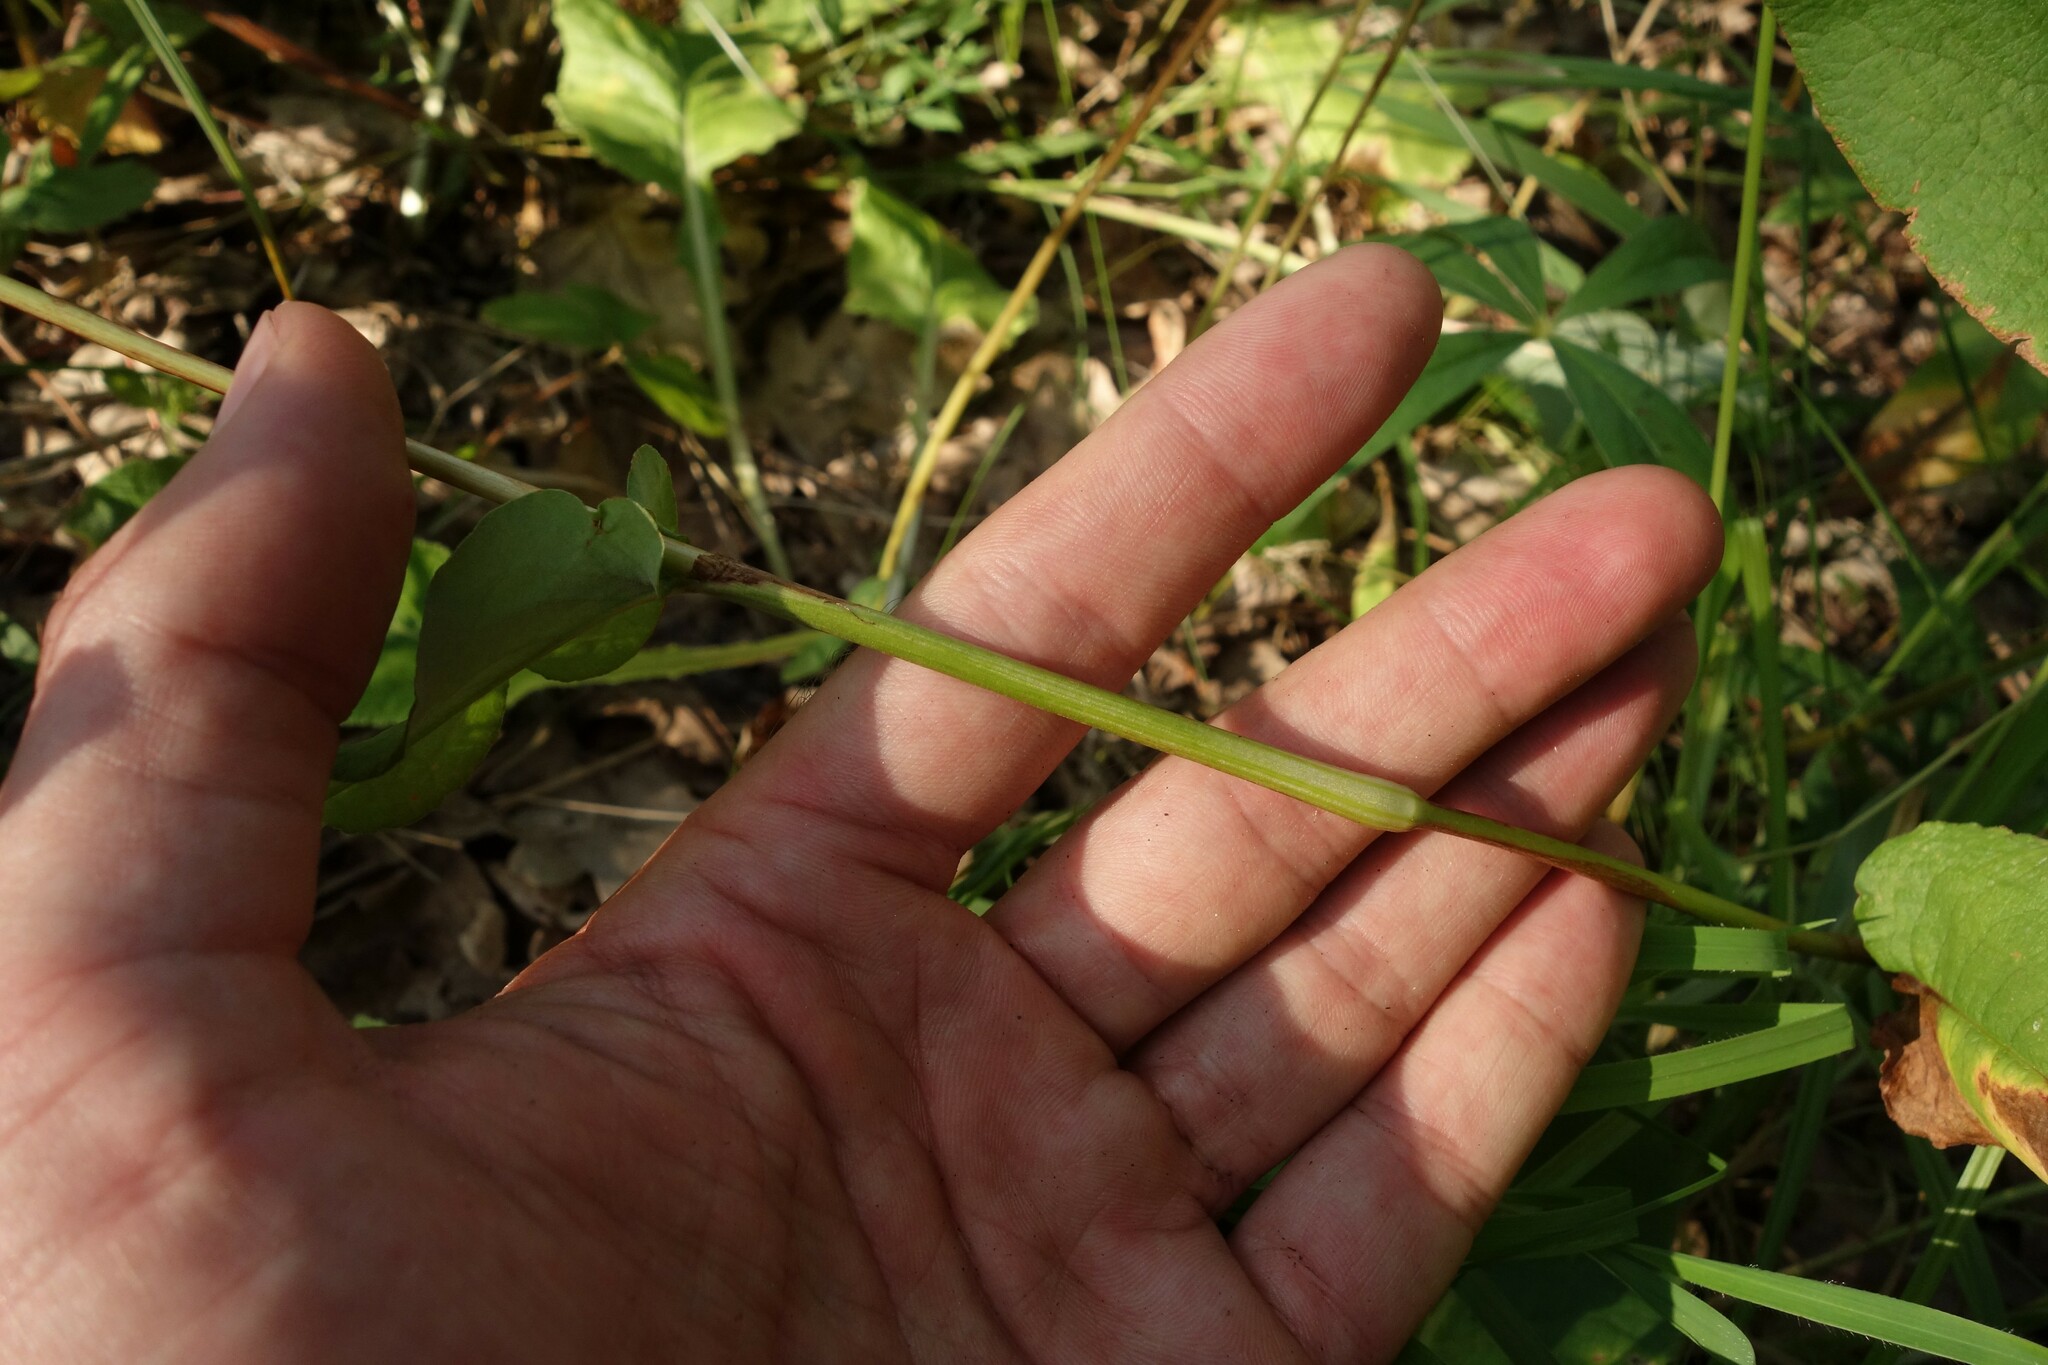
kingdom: Plantae
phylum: Tracheophyta
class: Magnoliopsida
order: Caryophyllales
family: Polygonaceae
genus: Bistorta
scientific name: Bistorta officinalis
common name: Common bistort
